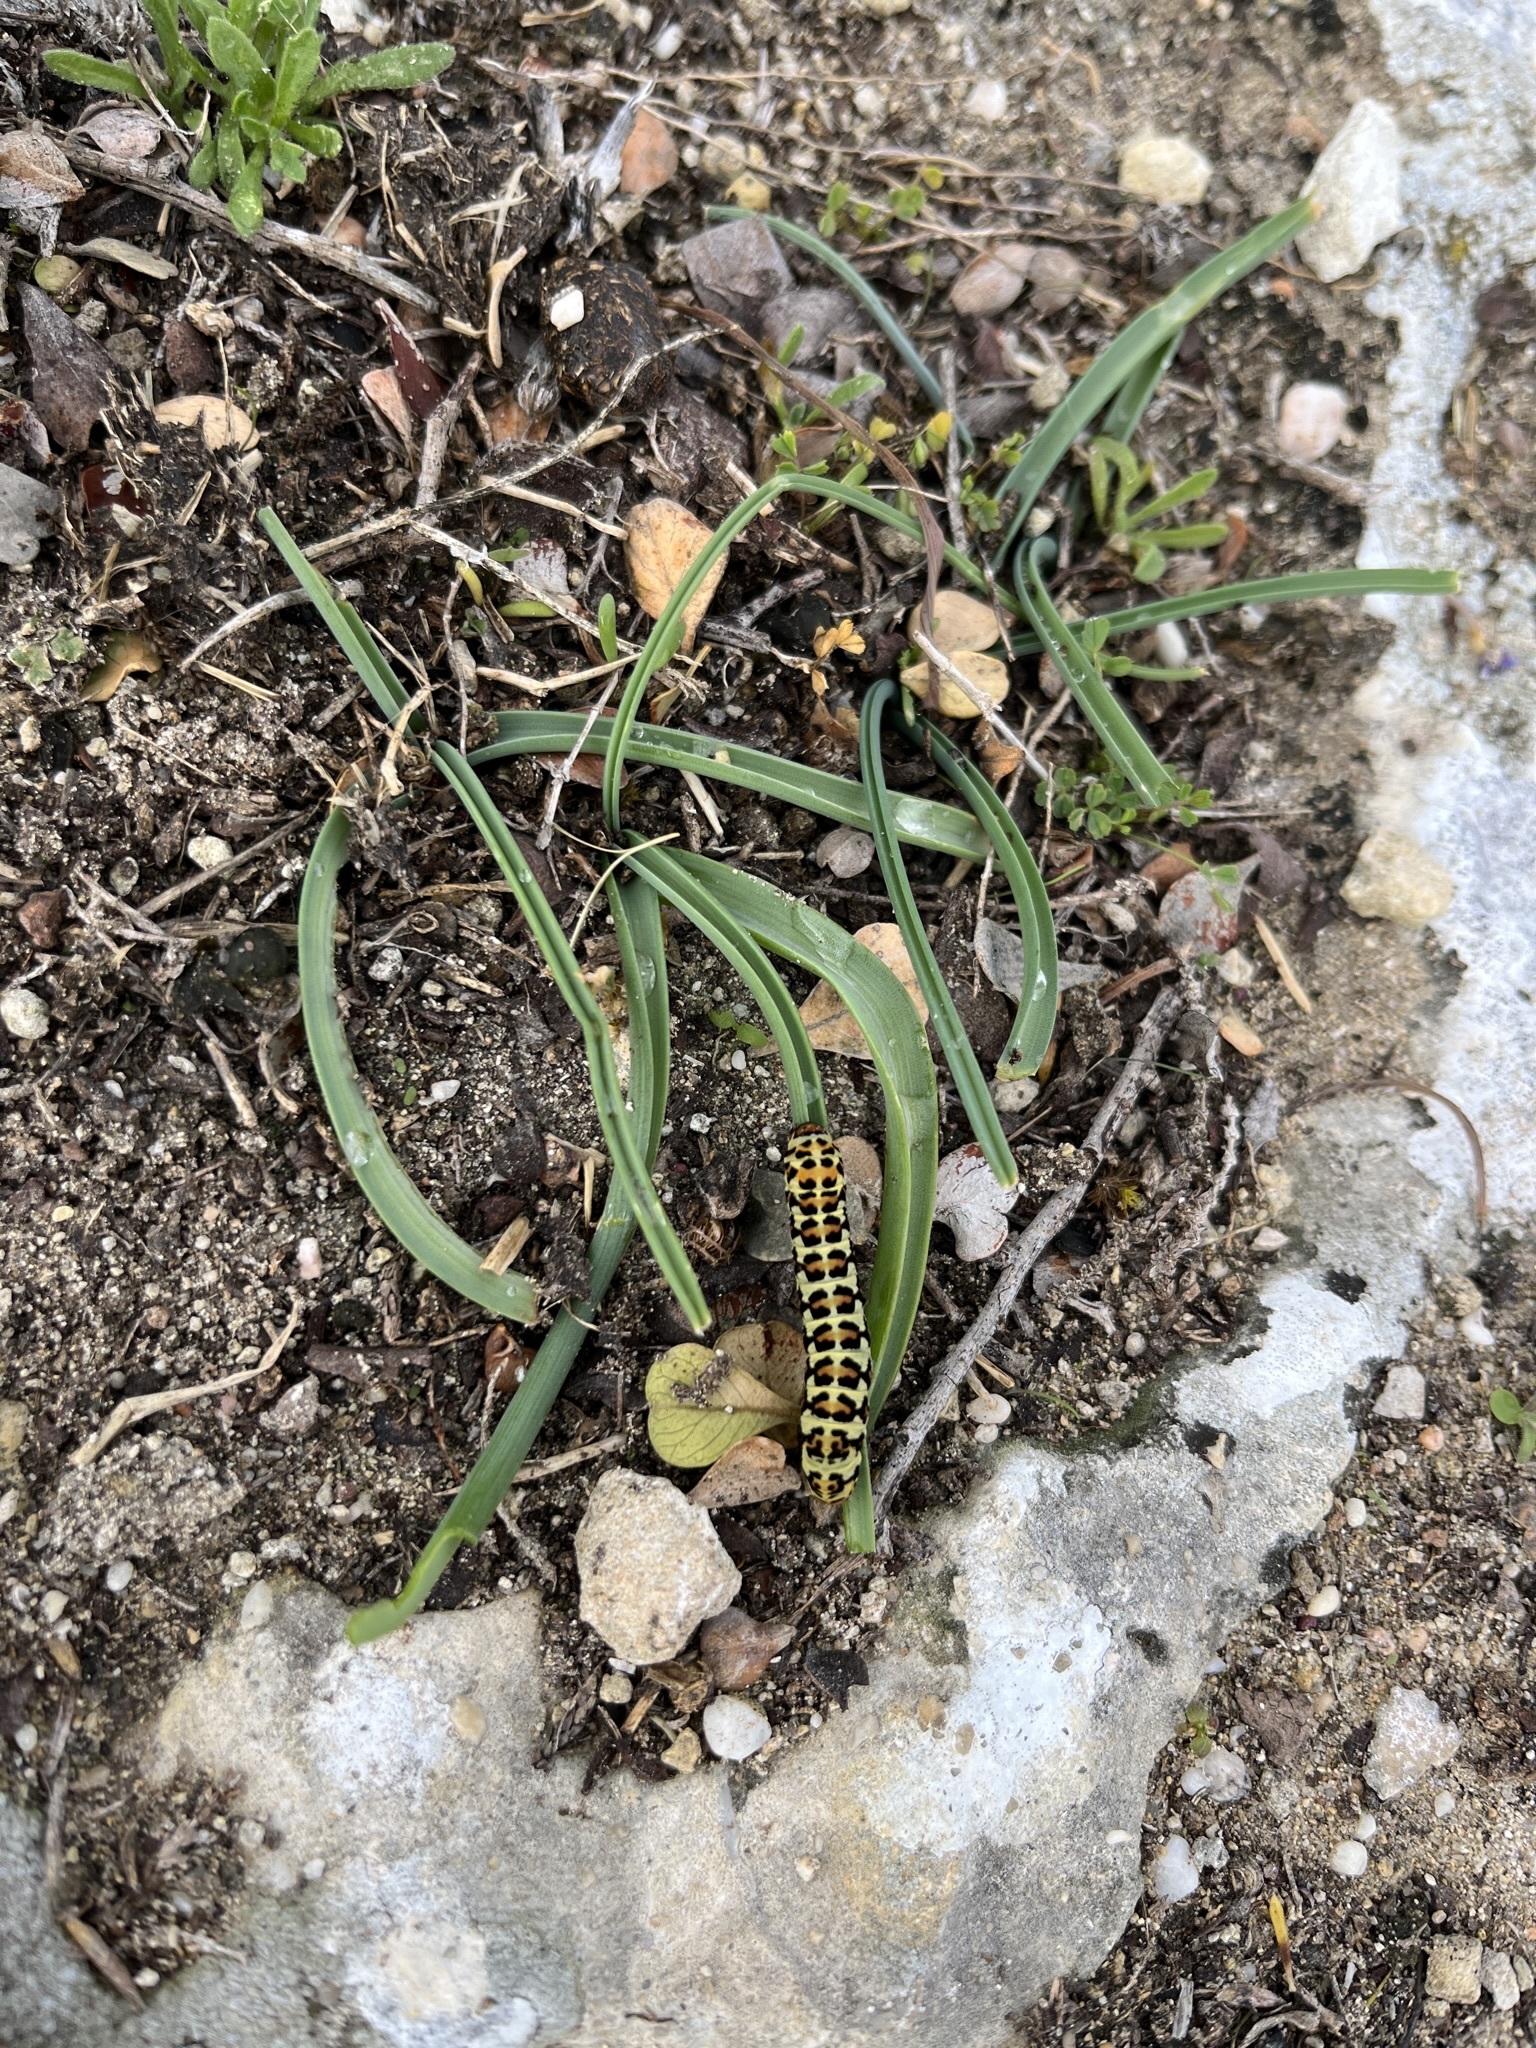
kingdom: Animalia
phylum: Arthropoda
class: Insecta
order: Lepidoptera
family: Noctuidae
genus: Diaphone
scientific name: Diaphone eumela
